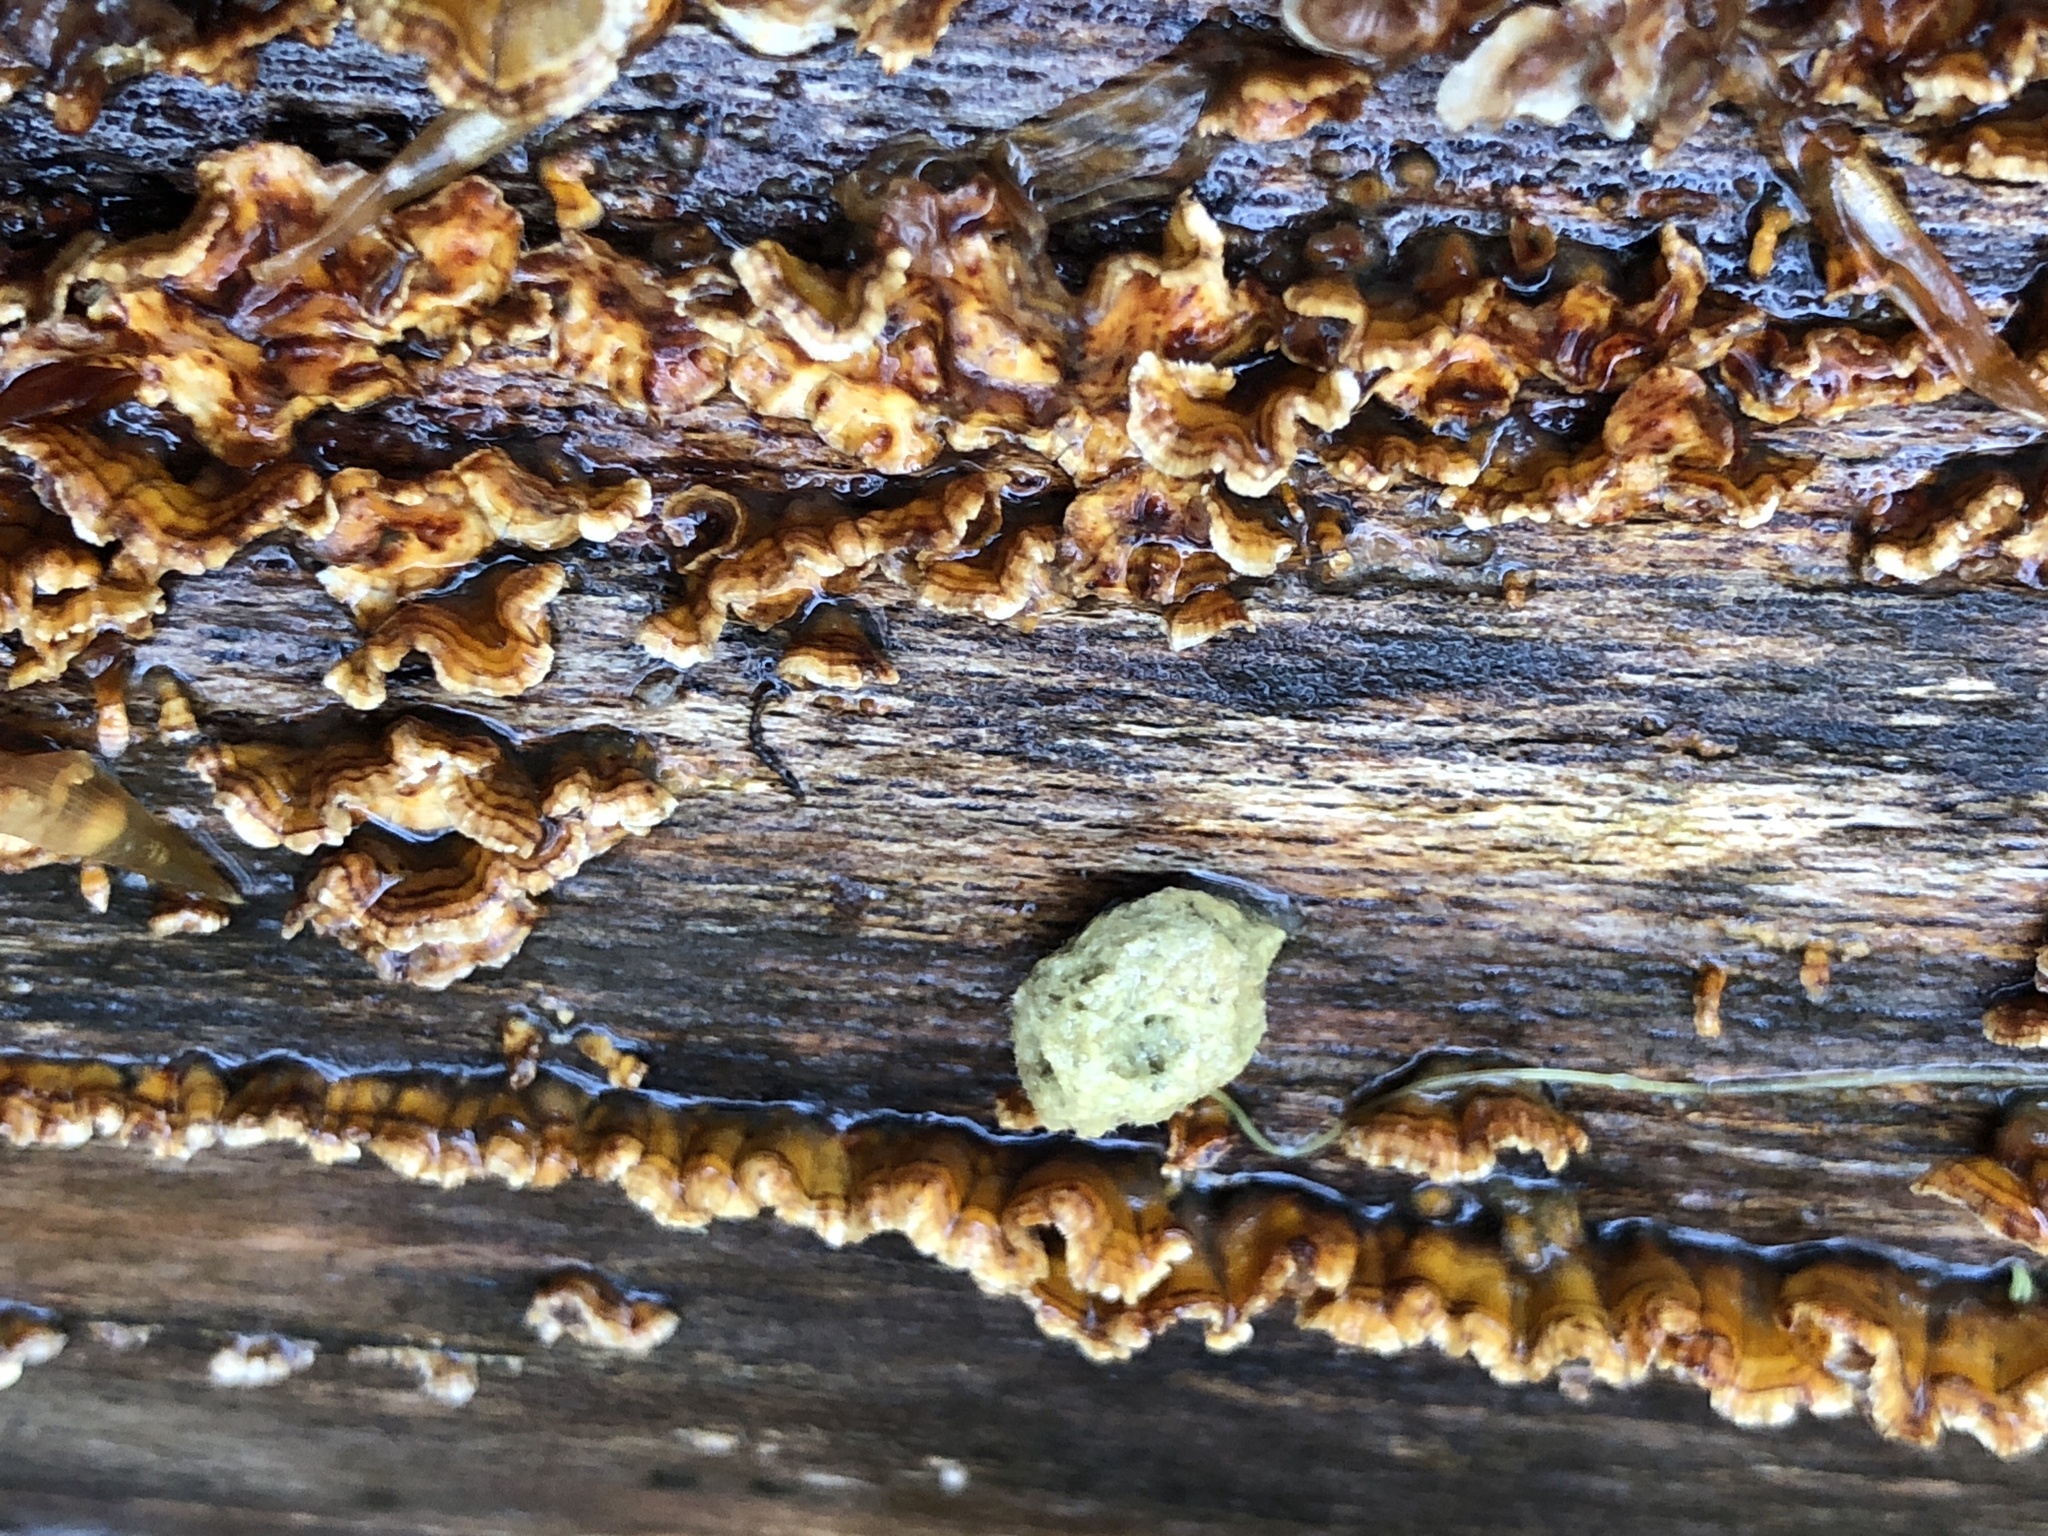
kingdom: Fungi
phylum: Basidiomycota
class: Agaricomycetes
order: Russulales
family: Stereaceae
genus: Stereum
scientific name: Stereum complicatum
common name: Crowded parchment
